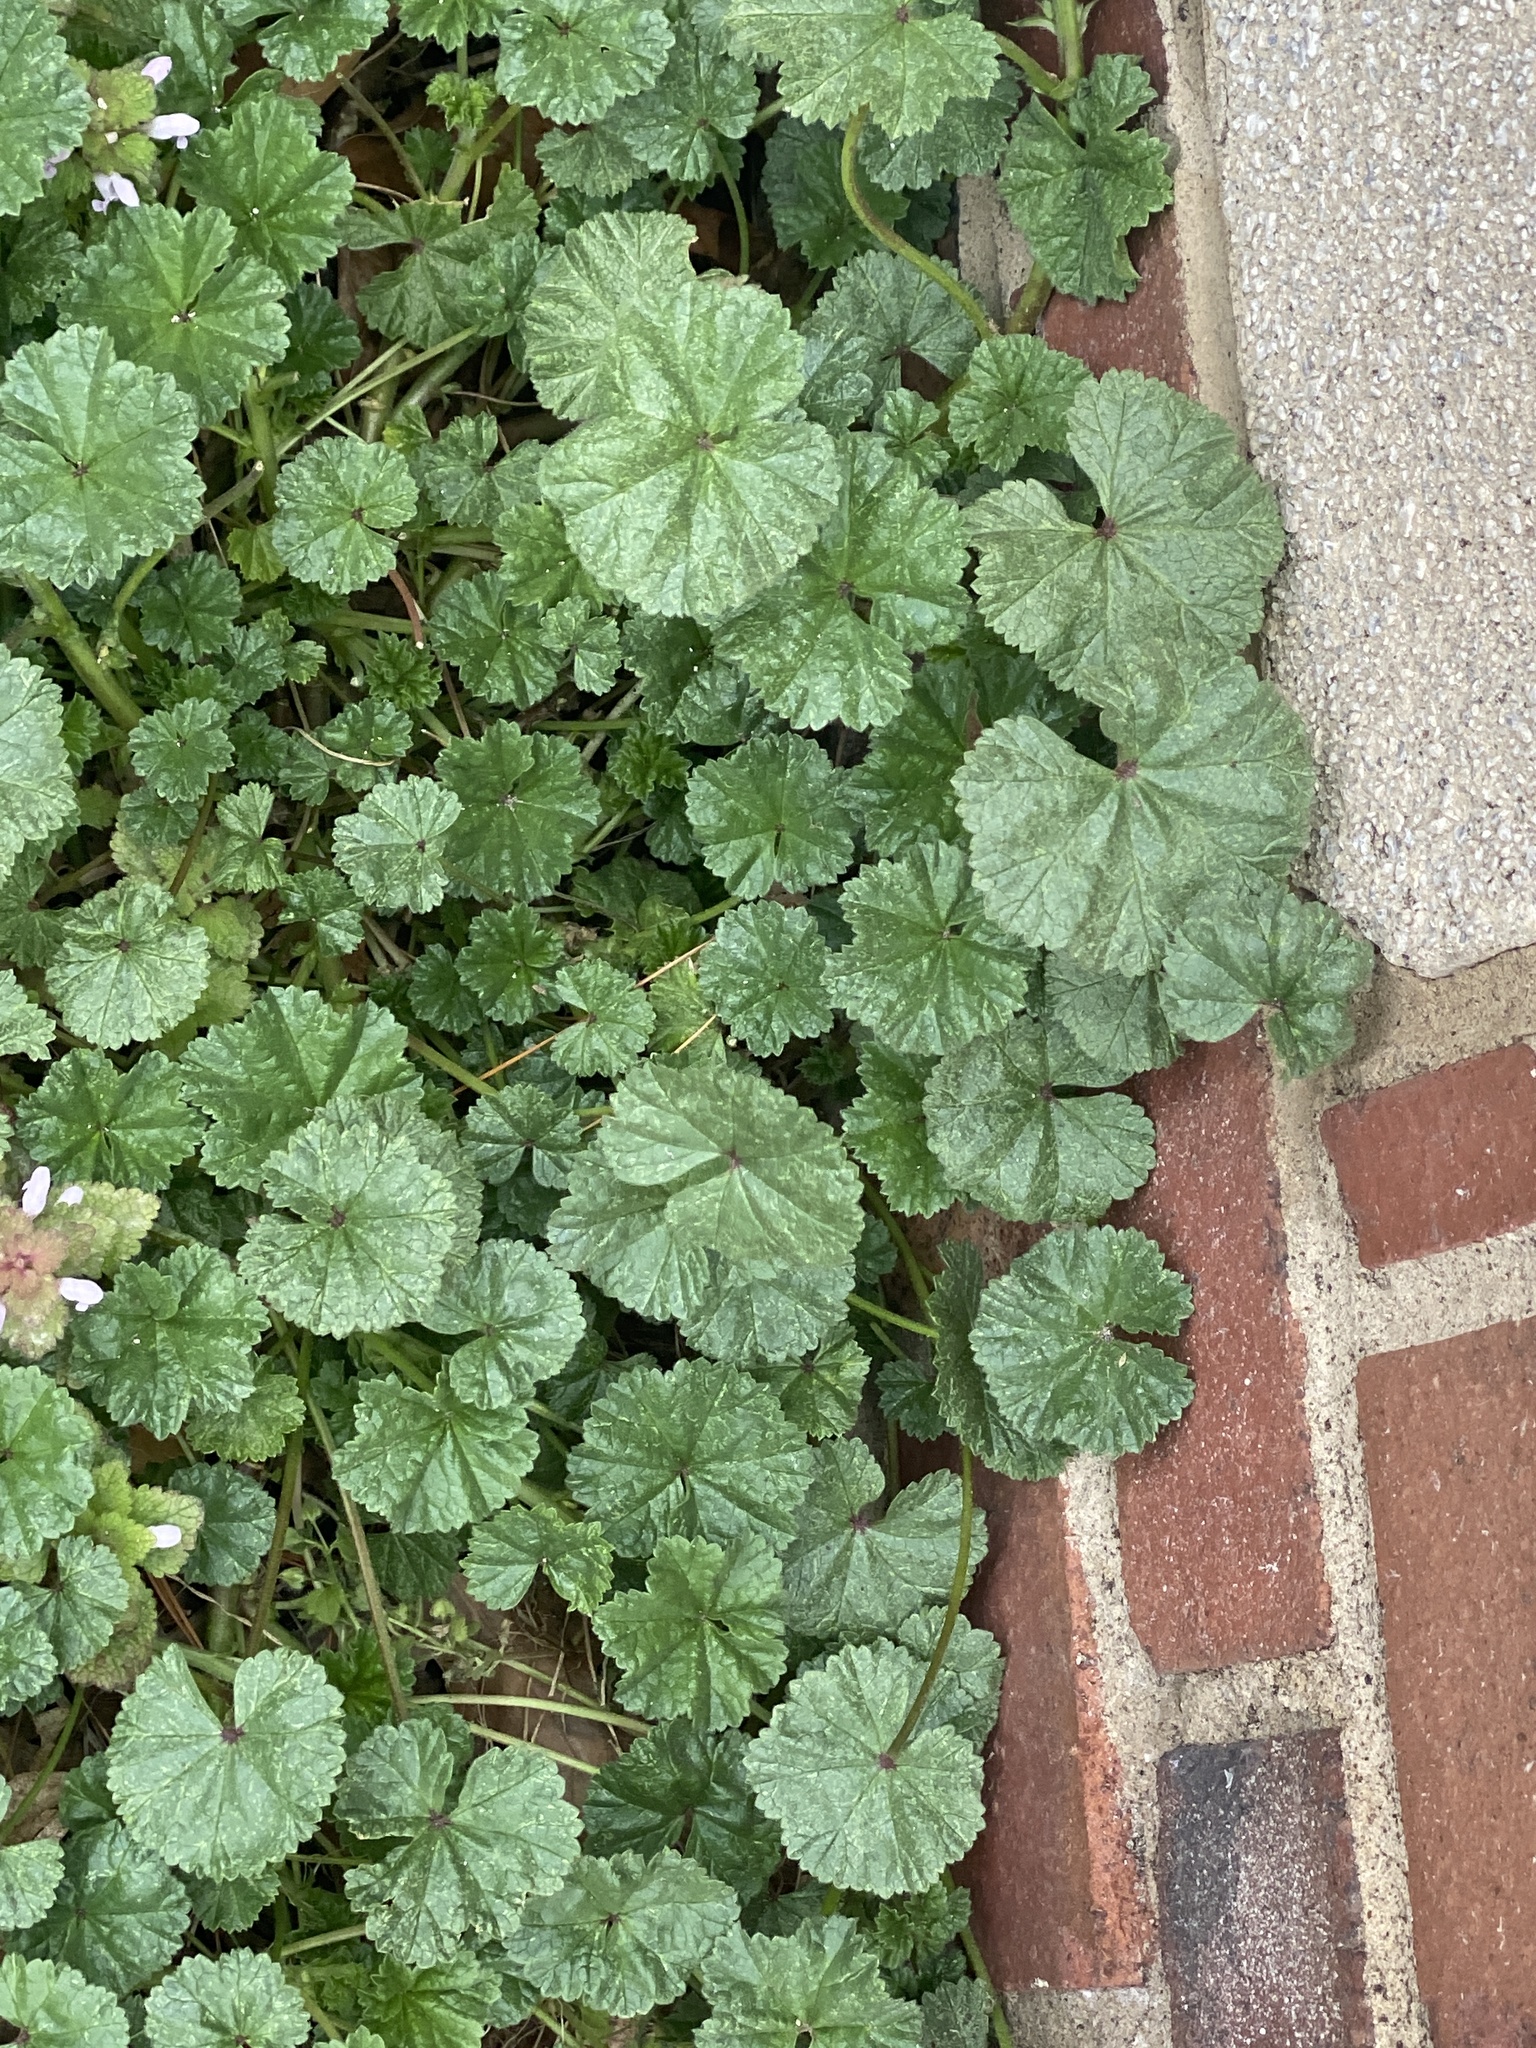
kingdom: Plantae
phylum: Tracheophyta
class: Magnoliopsida
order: Malvales
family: Malvaceae
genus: Malva
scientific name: Malva neglecta
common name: Common mallow
